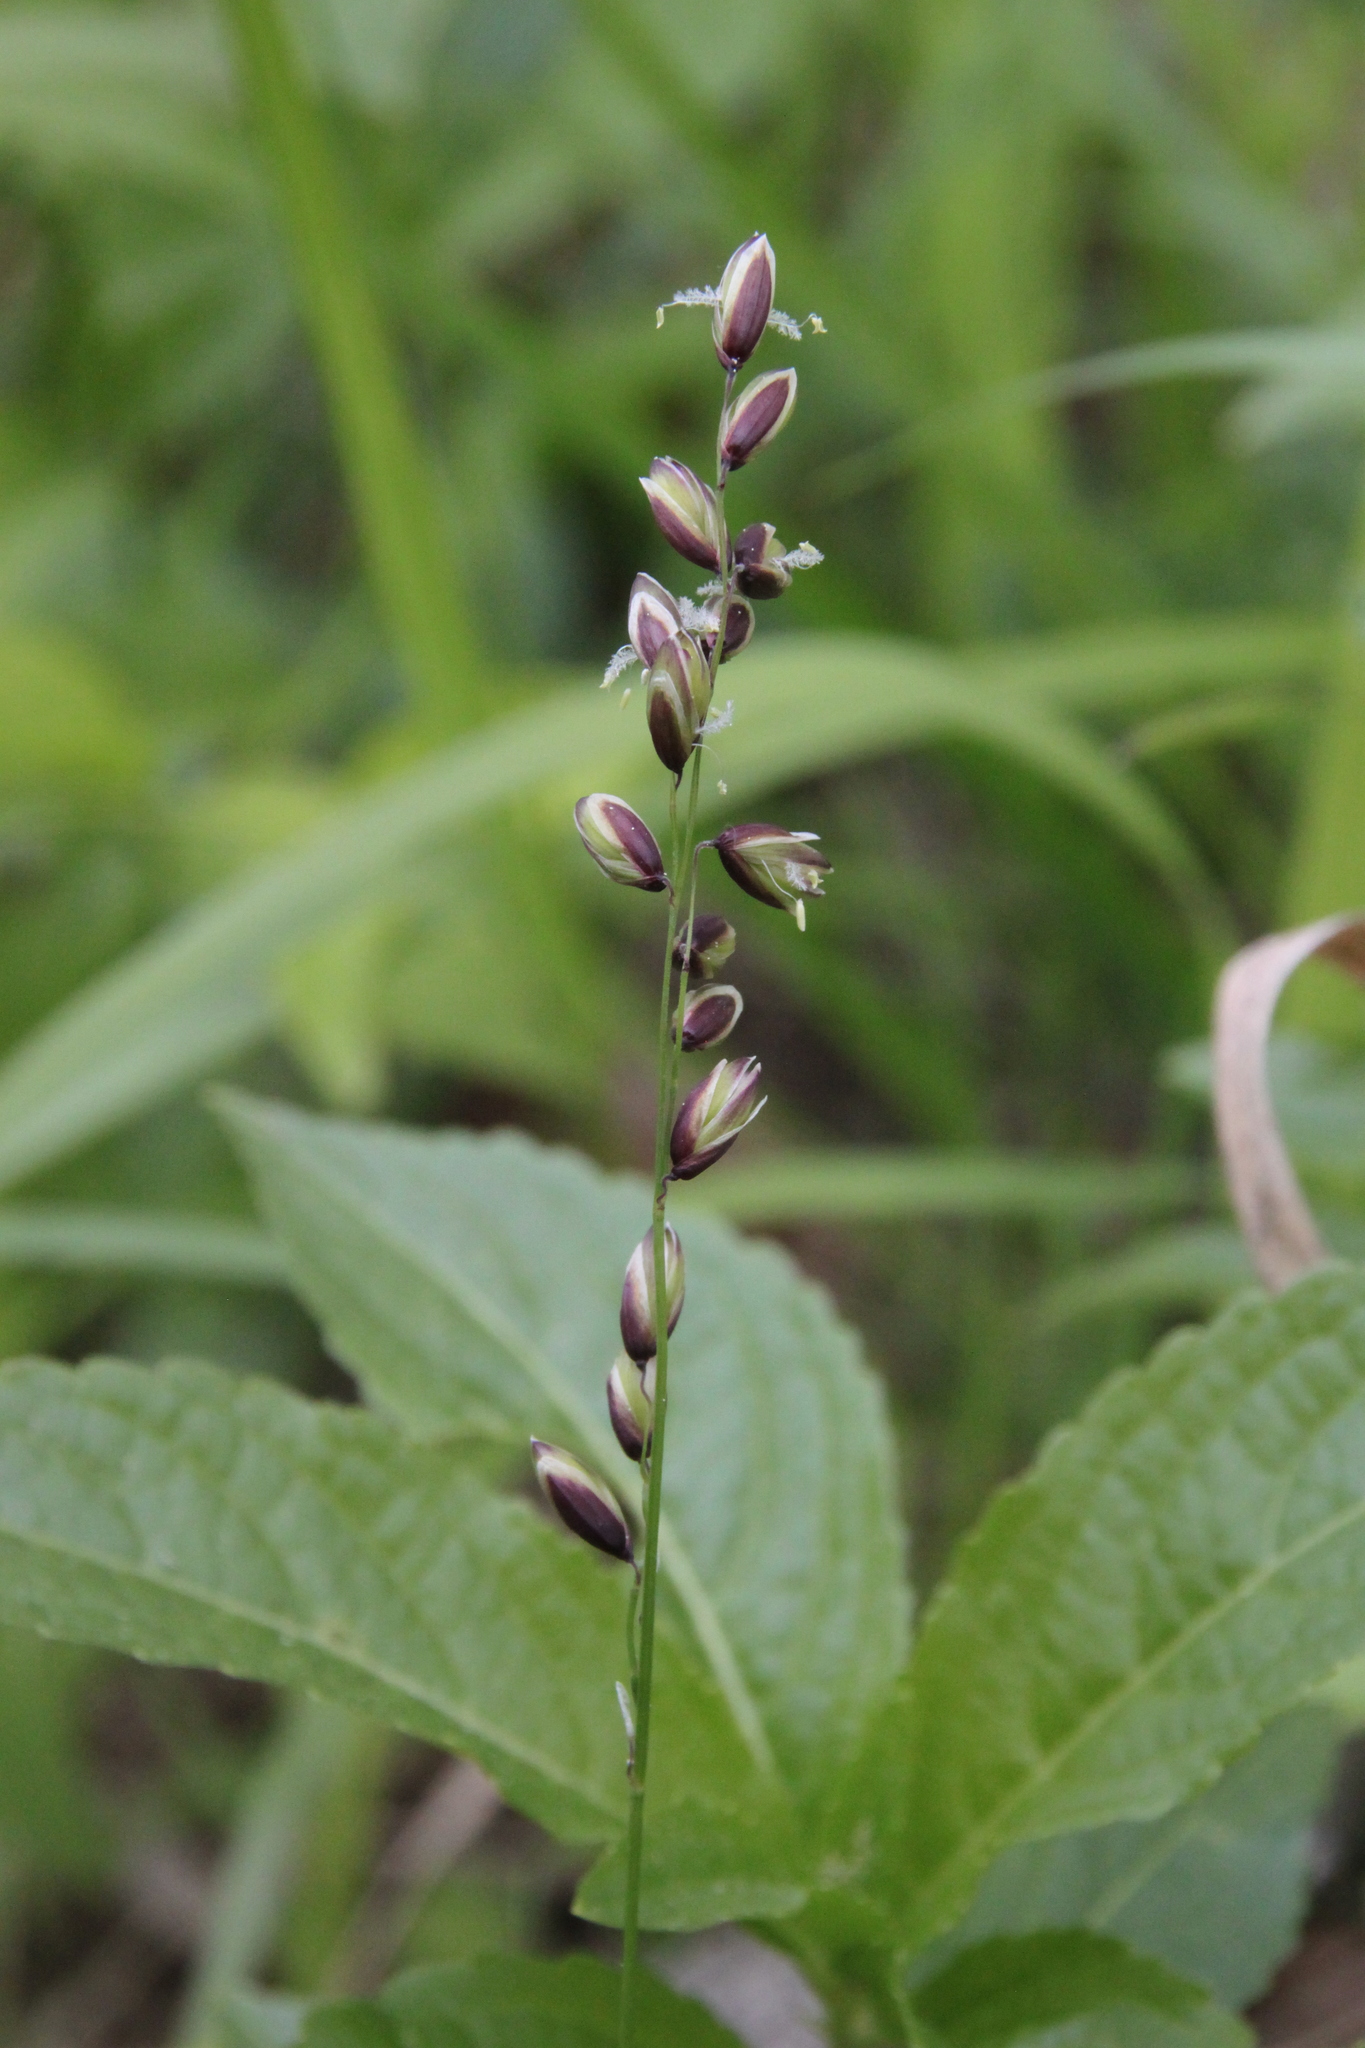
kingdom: Plantae
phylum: Tracheophyta
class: Liliopsida
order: Poales
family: Poaceae
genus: Melica
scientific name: Melica nutans
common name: Mountain melick
